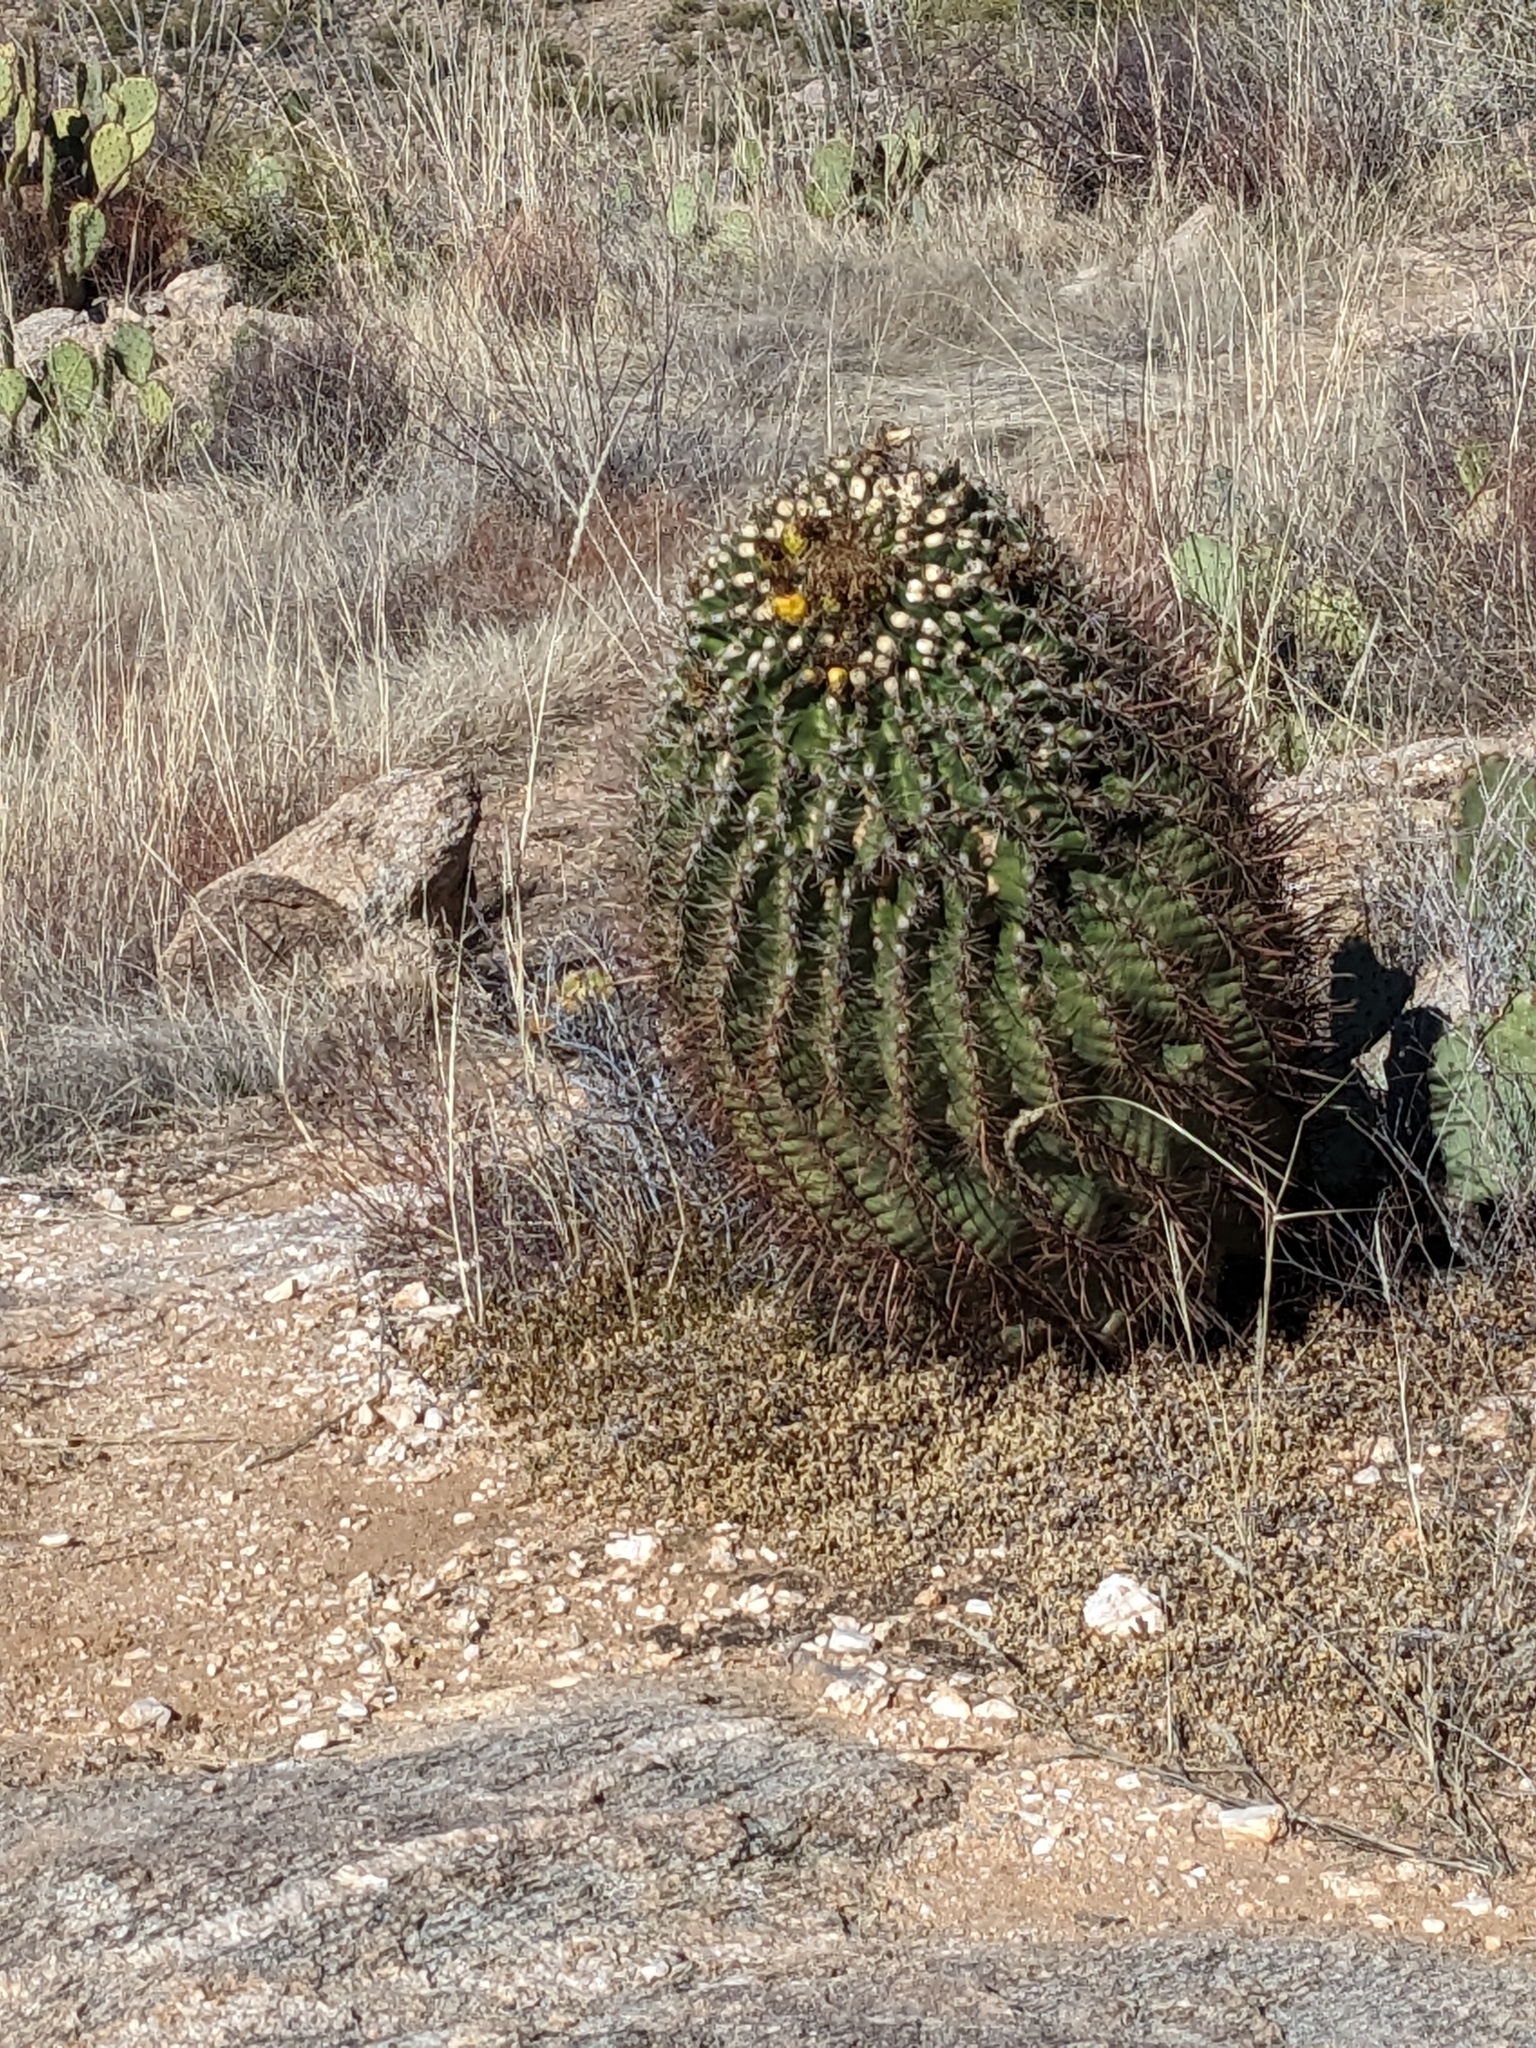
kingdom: Plantae
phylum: Tracheophyta
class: Magnoliopsida
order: Caryophyllales
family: Cactaceae
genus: Ferocactus
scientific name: Ferocactus wislizeni
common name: Candy barrel cactus
